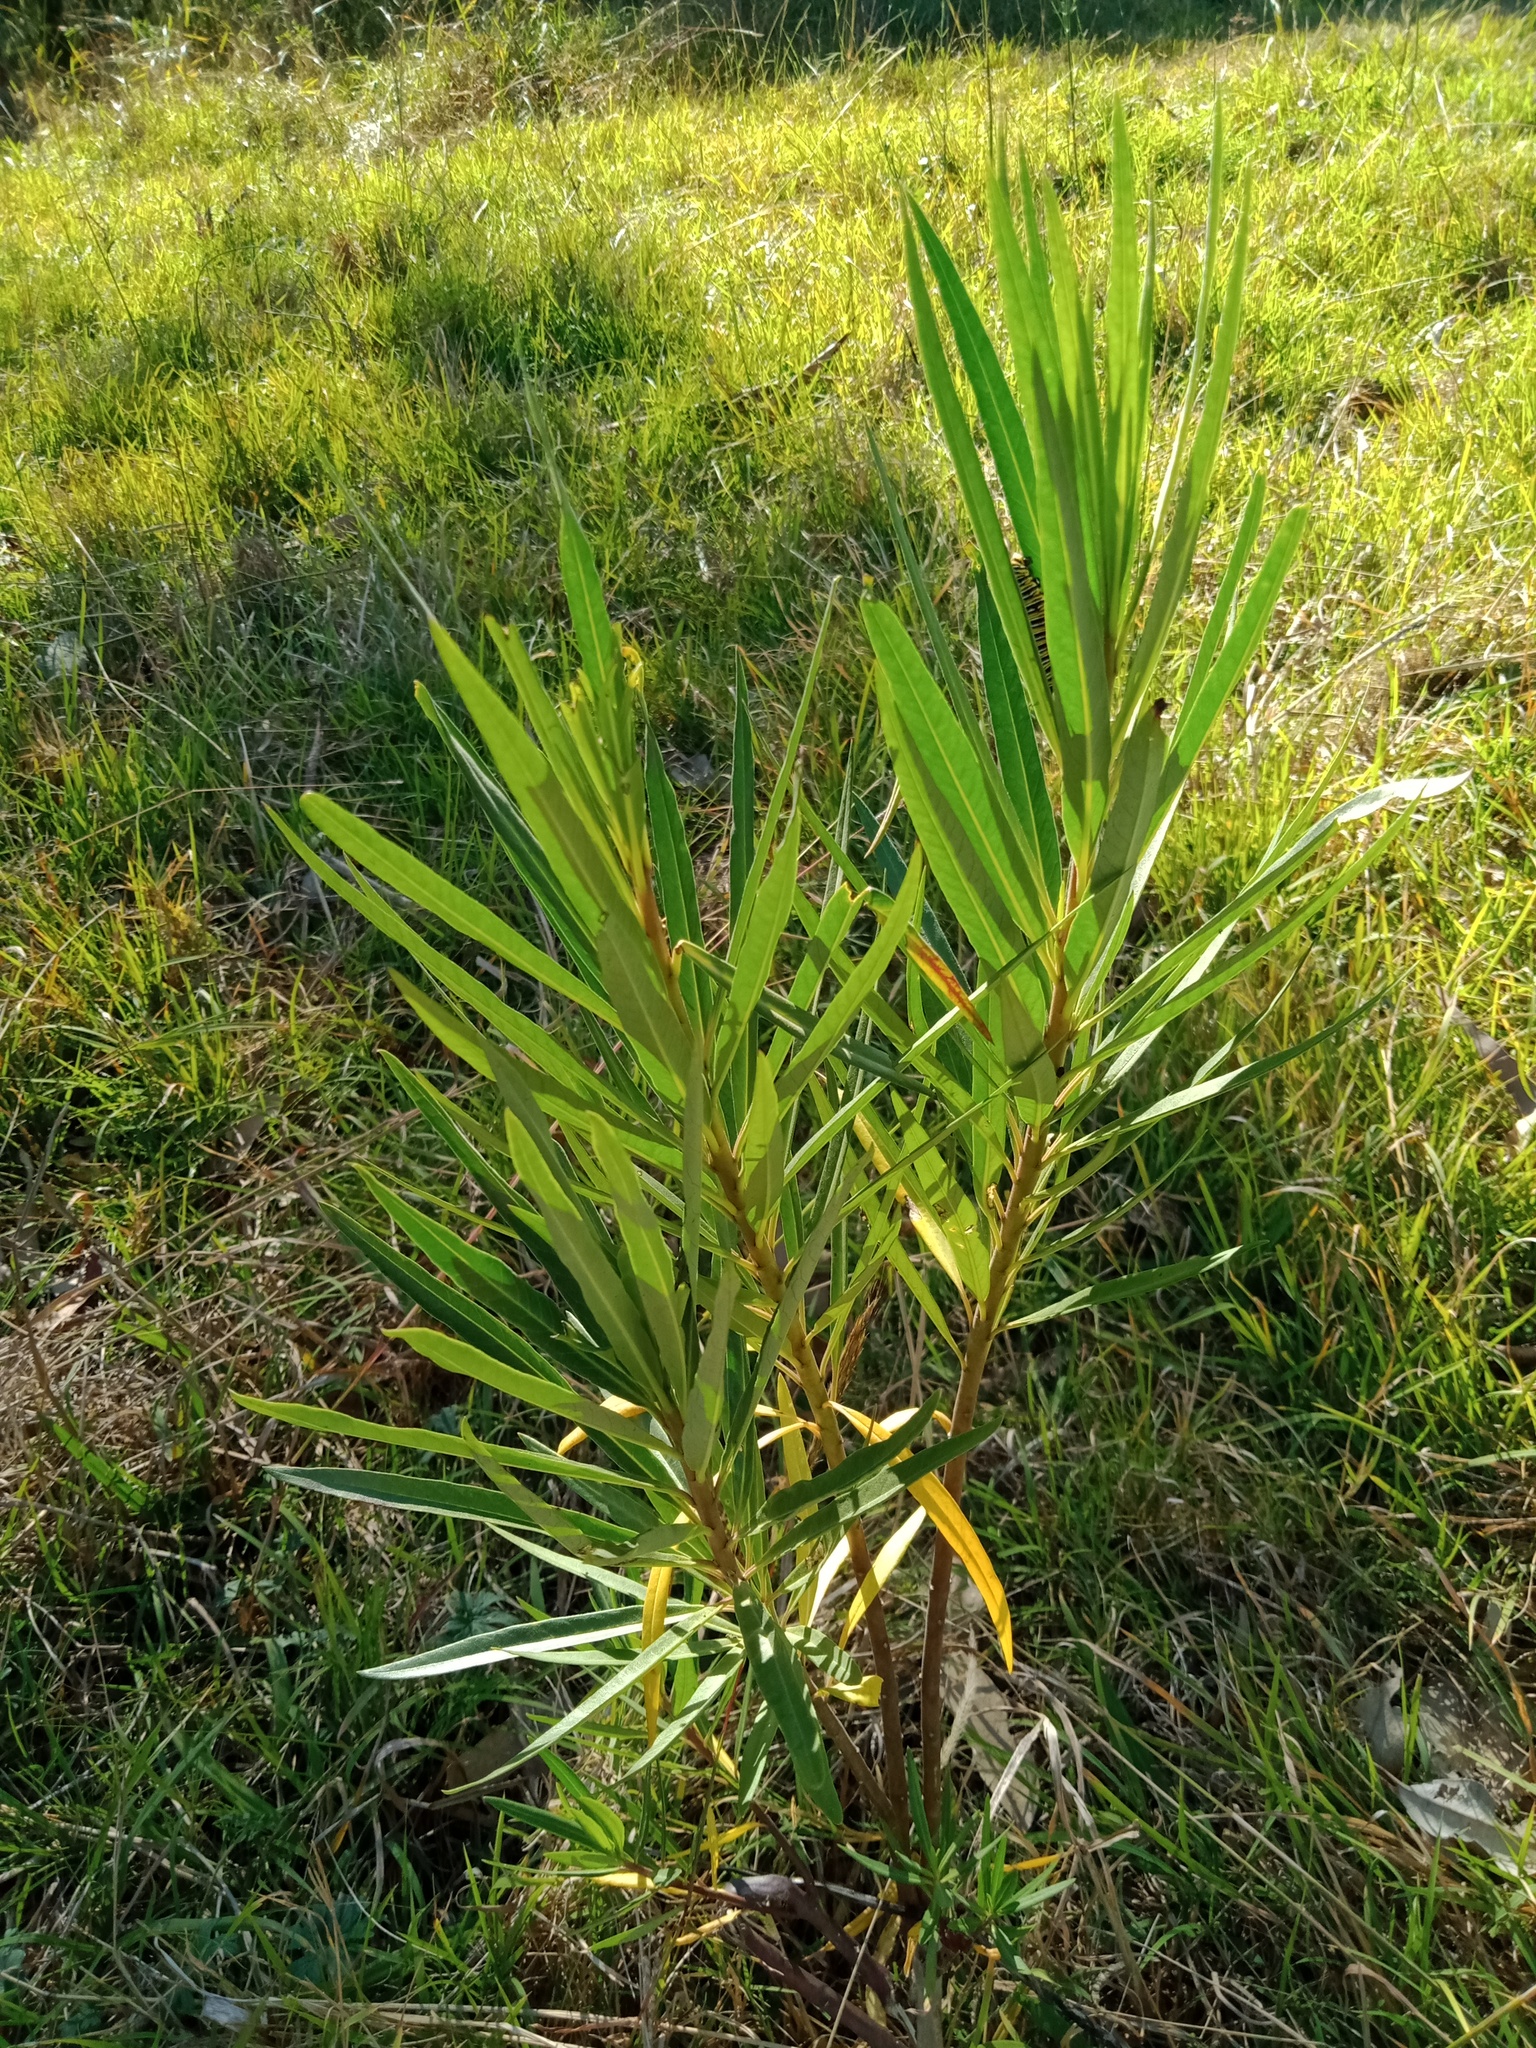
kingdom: Plantae
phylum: Tracheophyta
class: Magnoliopsida
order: Gentianales
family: Apocynaceae
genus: Gomphocarpus
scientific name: Gomphocarpus fruticosus
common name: Milkweed
